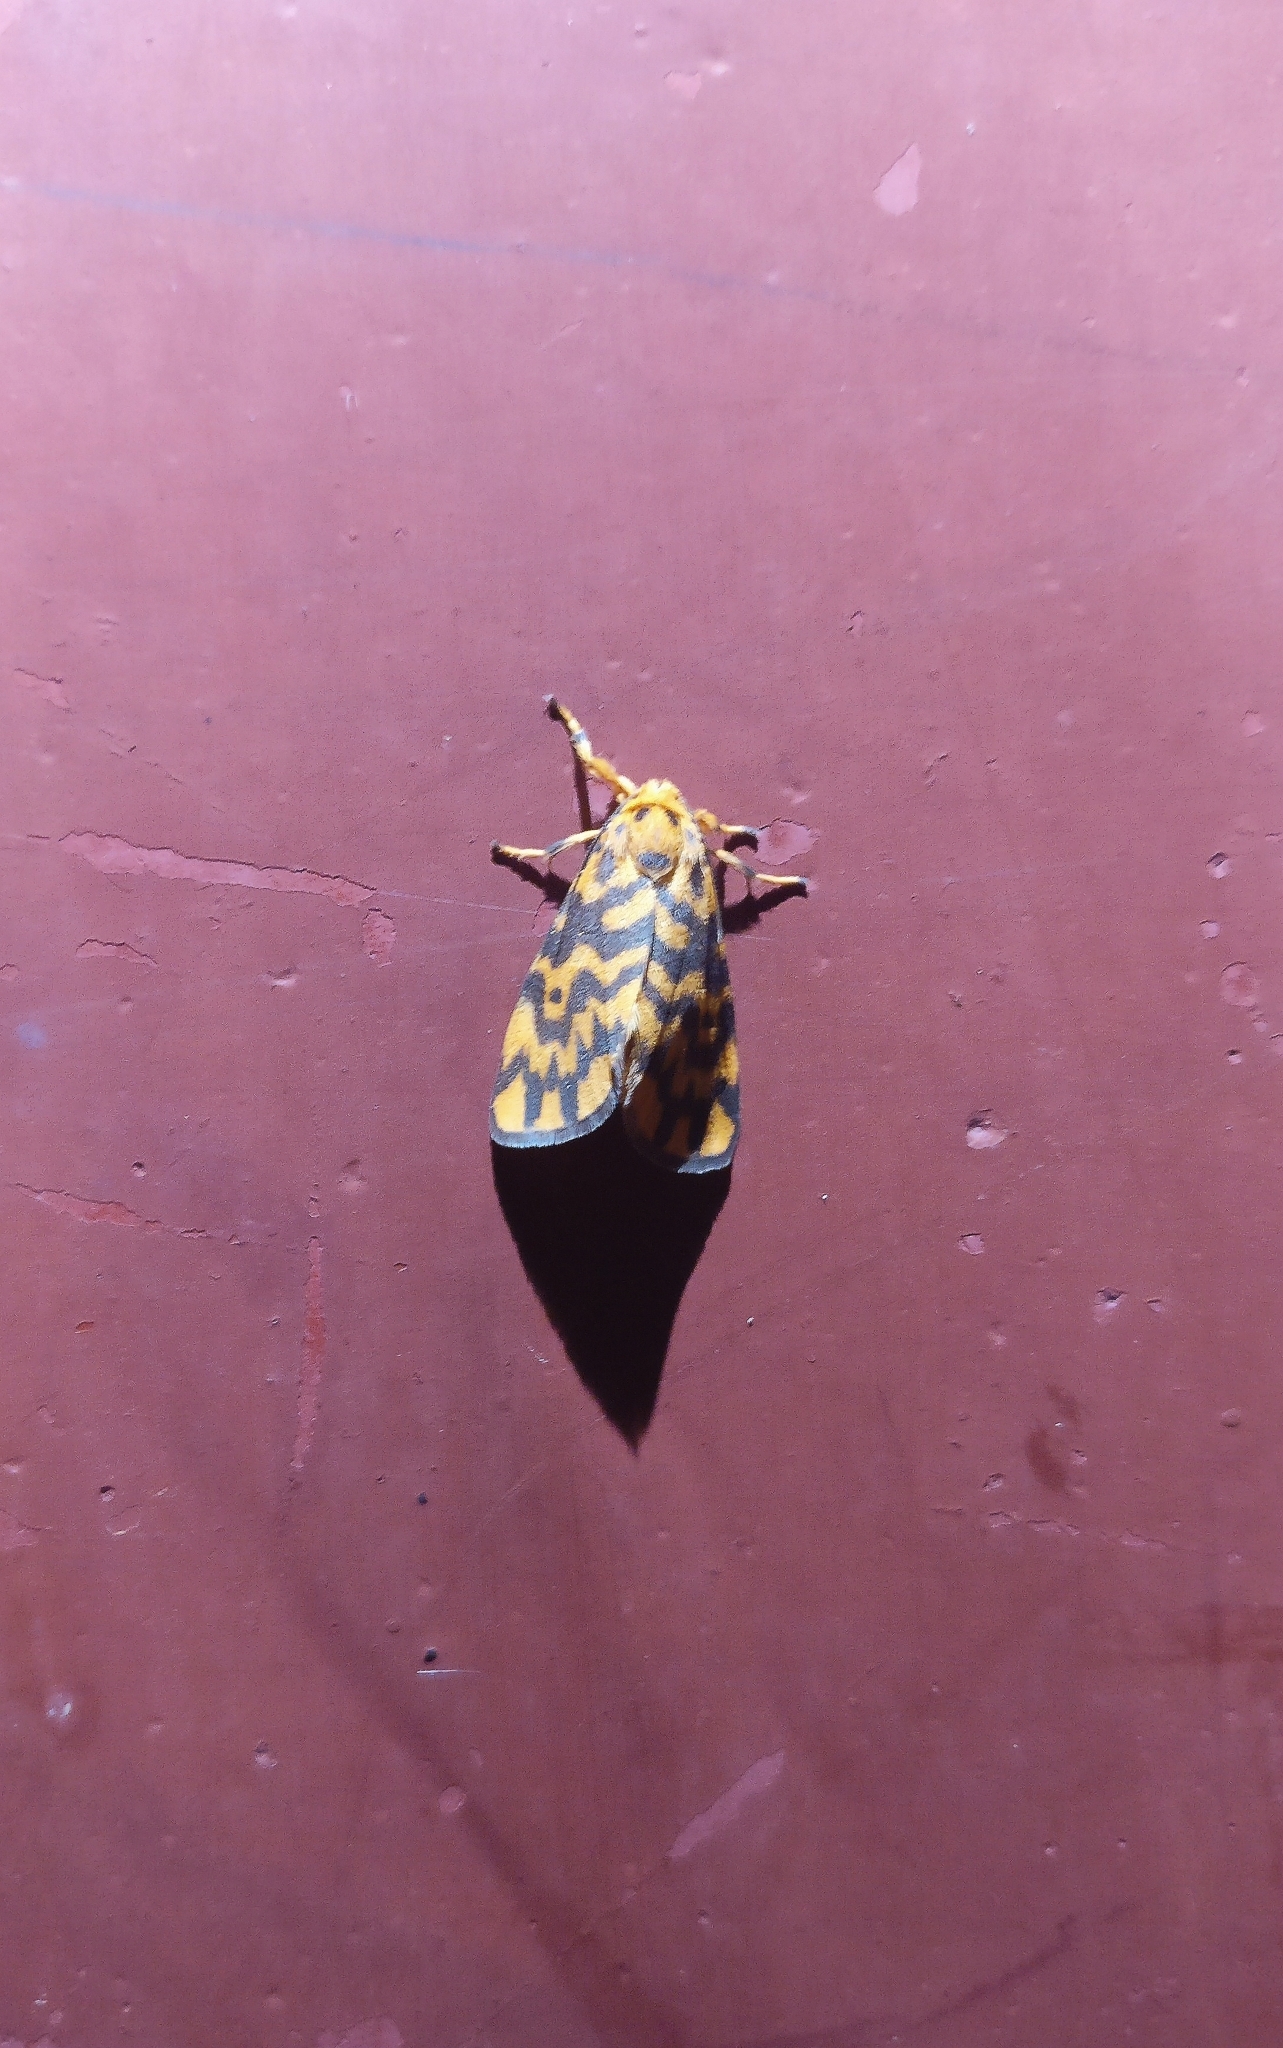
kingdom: Animalia
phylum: Arthropoda
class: Insecta
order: Lepidoptera
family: Erebidae
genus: Nepita
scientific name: Nepita conferta
